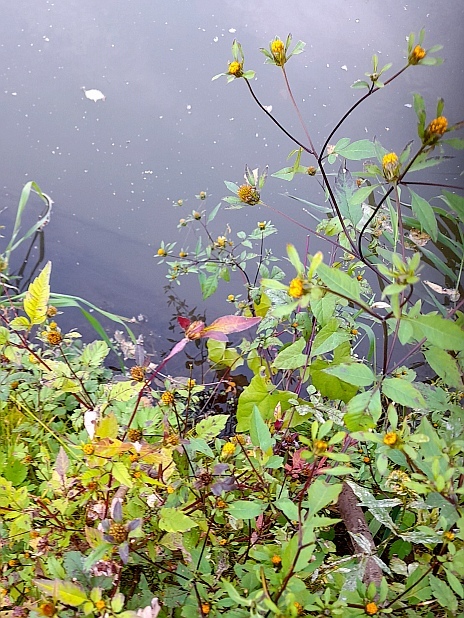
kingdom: Plantae
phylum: Tracheophyta
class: Magnoliopsida
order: Asterales
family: Asteraceae
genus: Bidens
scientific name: Bidens frondosa
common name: Beggarticks
